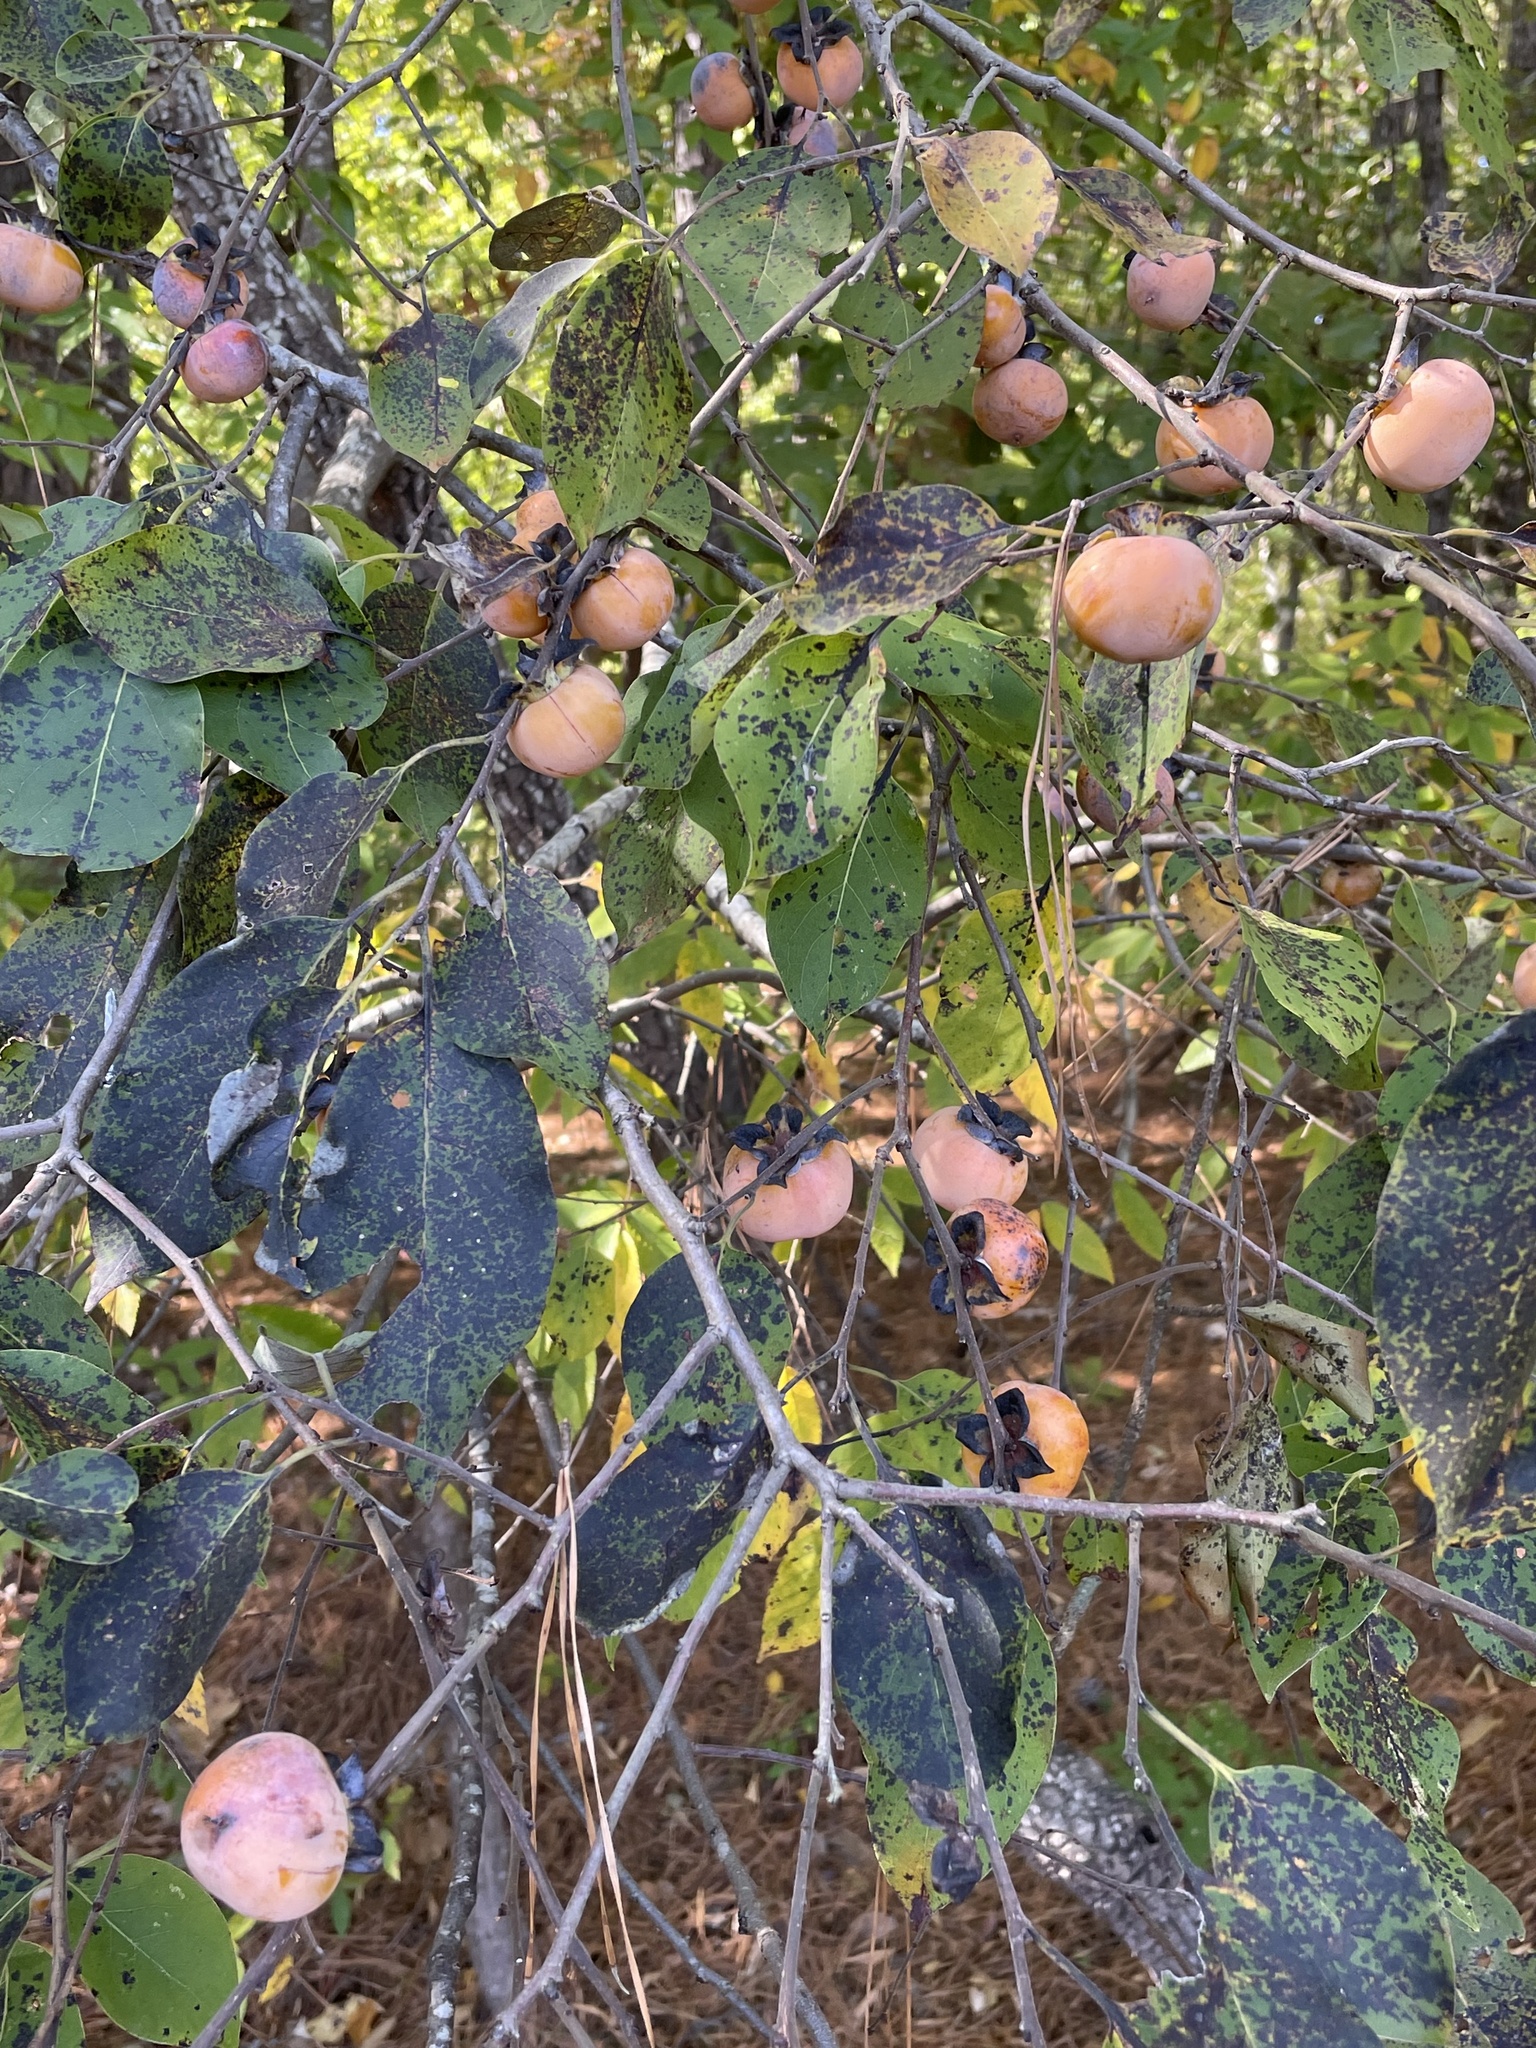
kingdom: Plantae
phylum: Tracheophyta
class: Magnoliopsida
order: Ericales
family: Ebenaceae
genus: Diospyros
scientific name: Diospyros virginiana
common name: Persimmon
